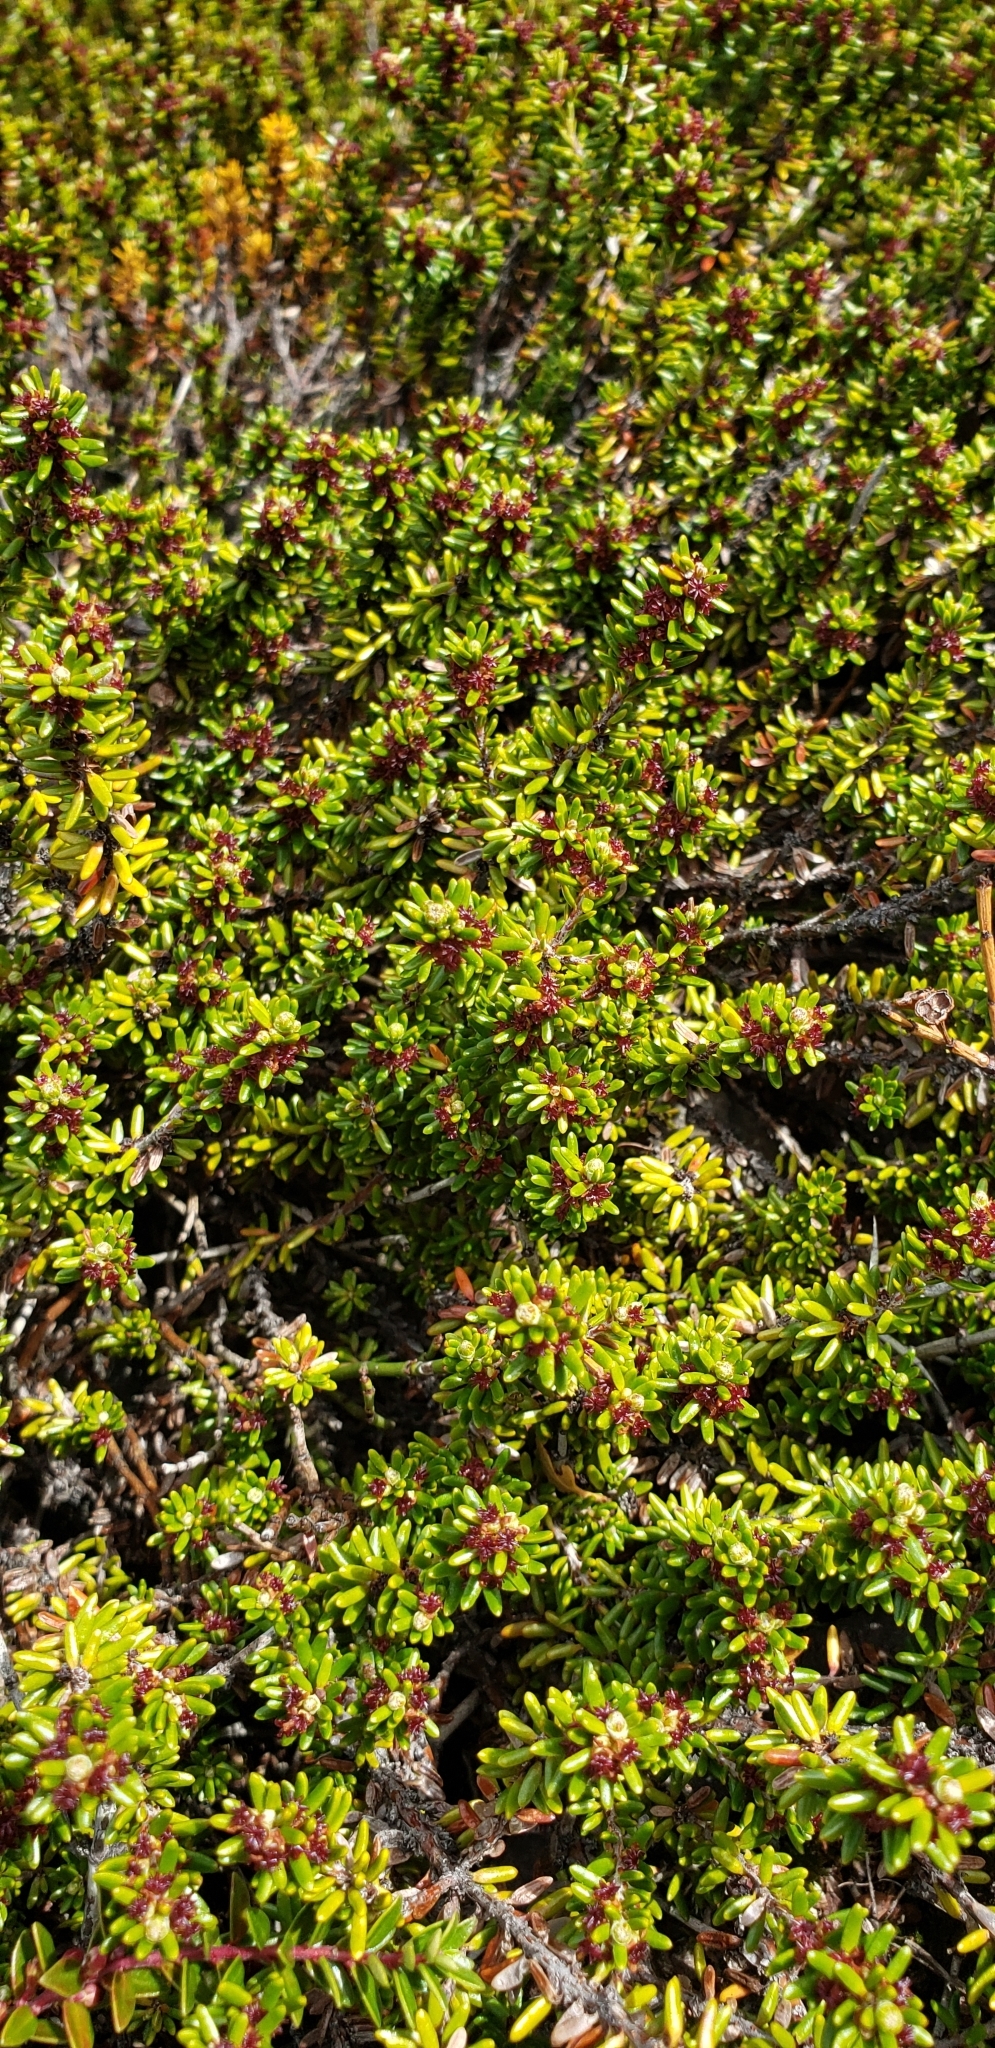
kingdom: Plantae
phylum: Tracheophyta
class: Magnoliopsida
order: Ericales
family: Ericaceae
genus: Empetrum
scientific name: Empetrum rubrum
